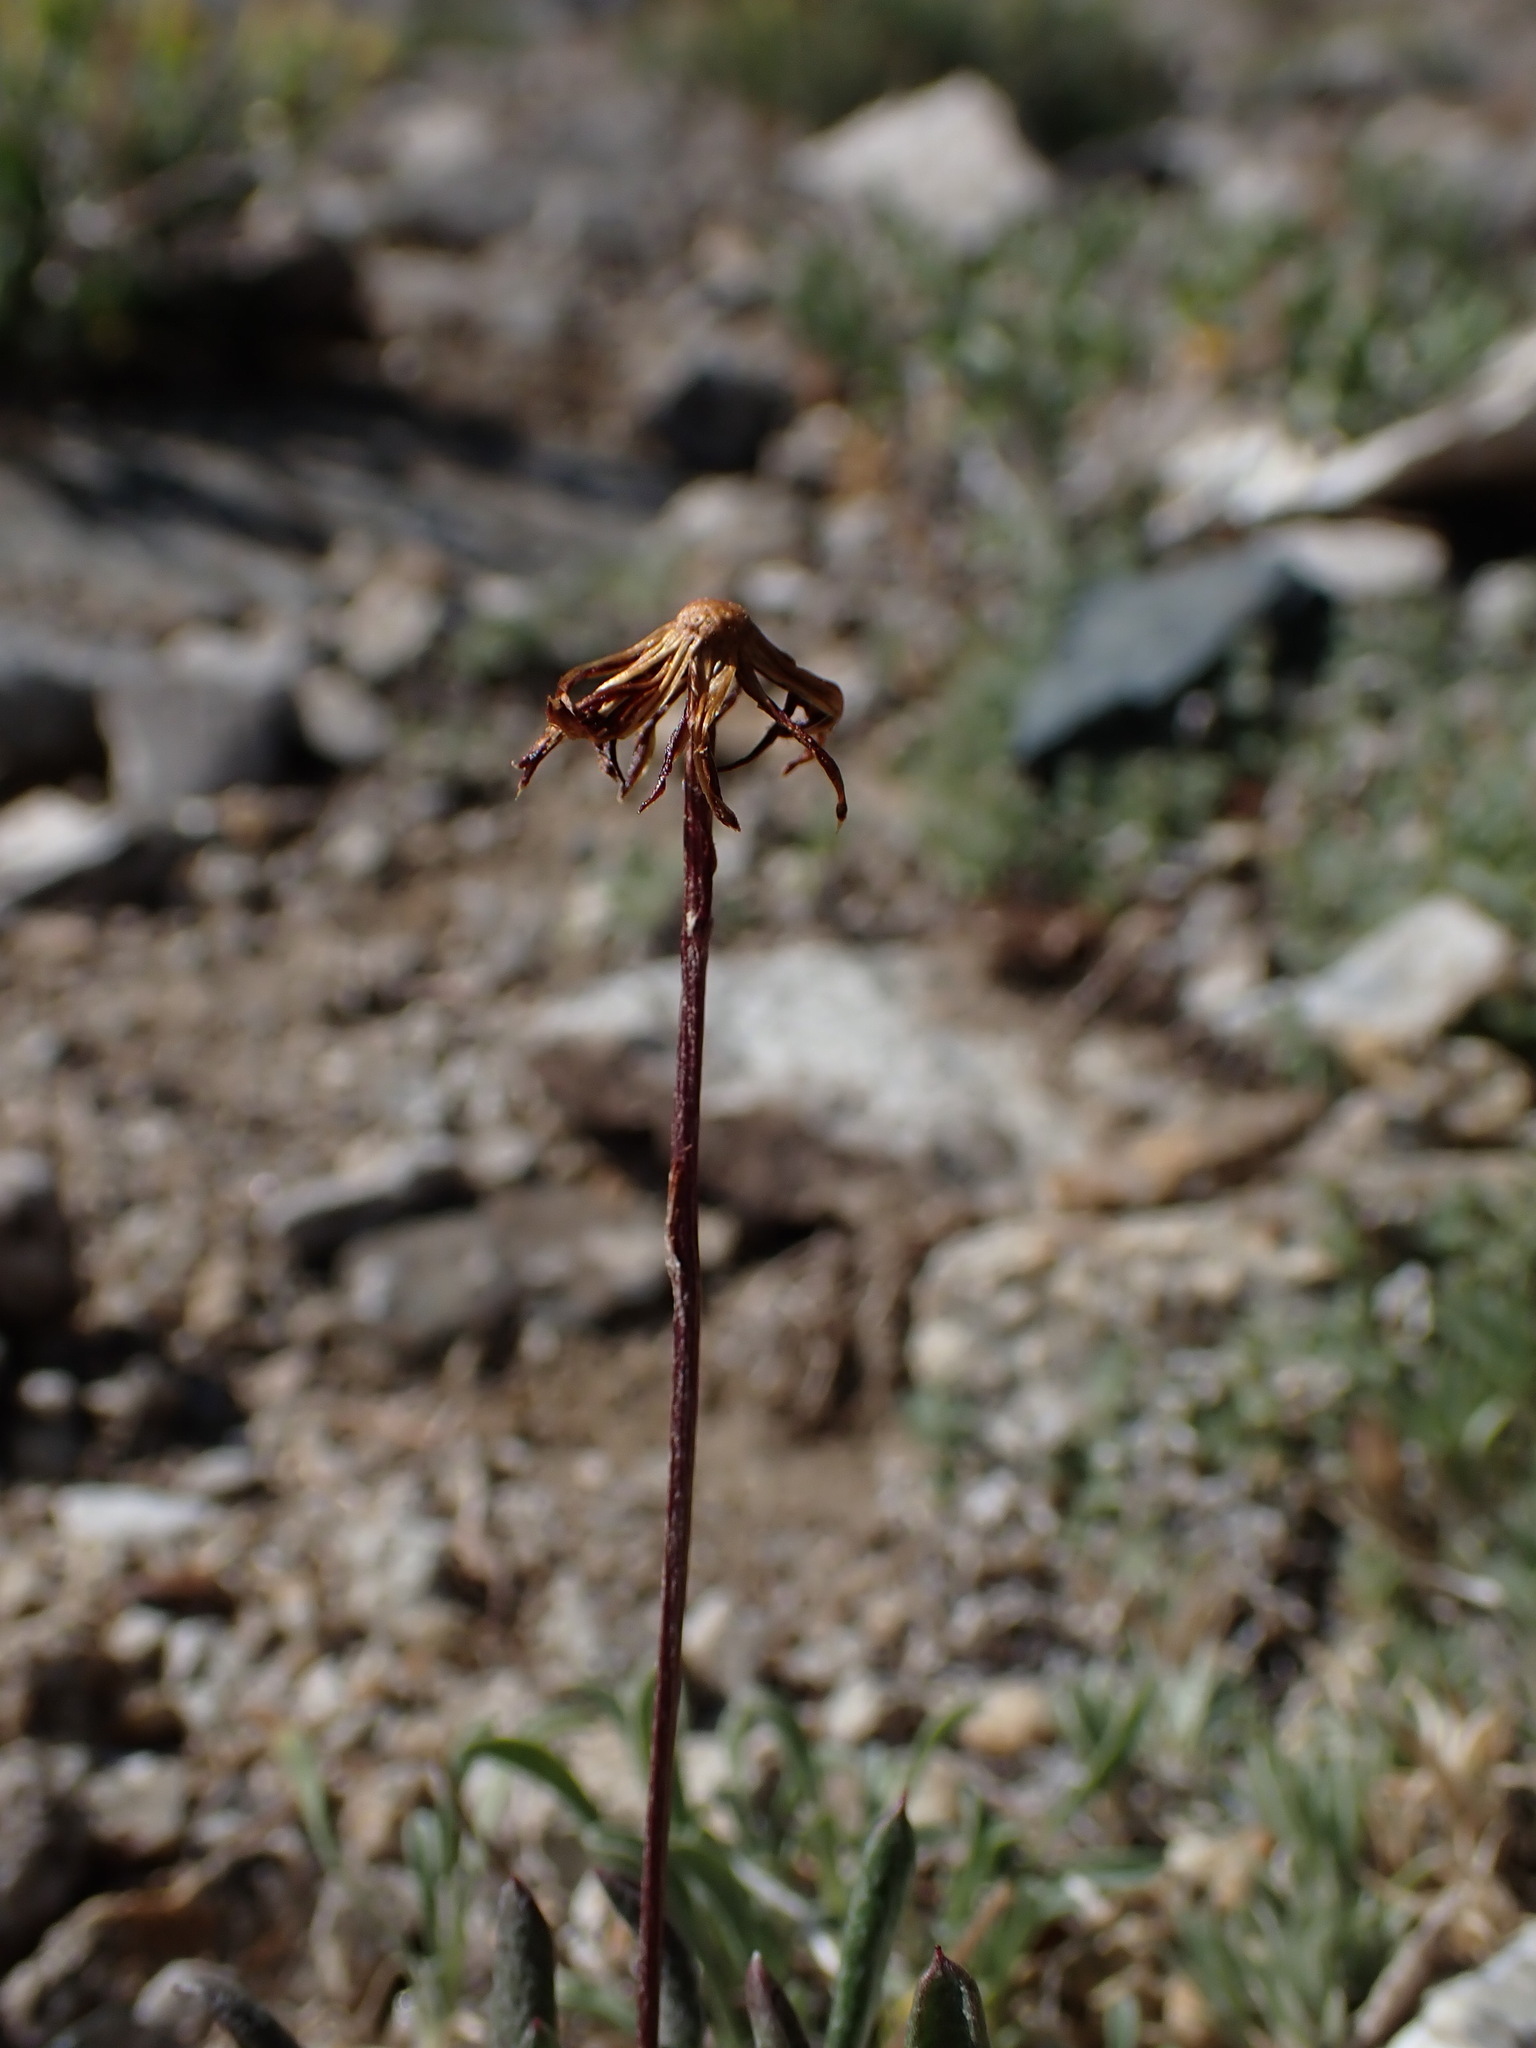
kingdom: Plantae
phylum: Tracheophyta
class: Magnoliopsida
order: Asterales
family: Asteraceae
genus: Packera
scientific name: Packera werneriifolia
